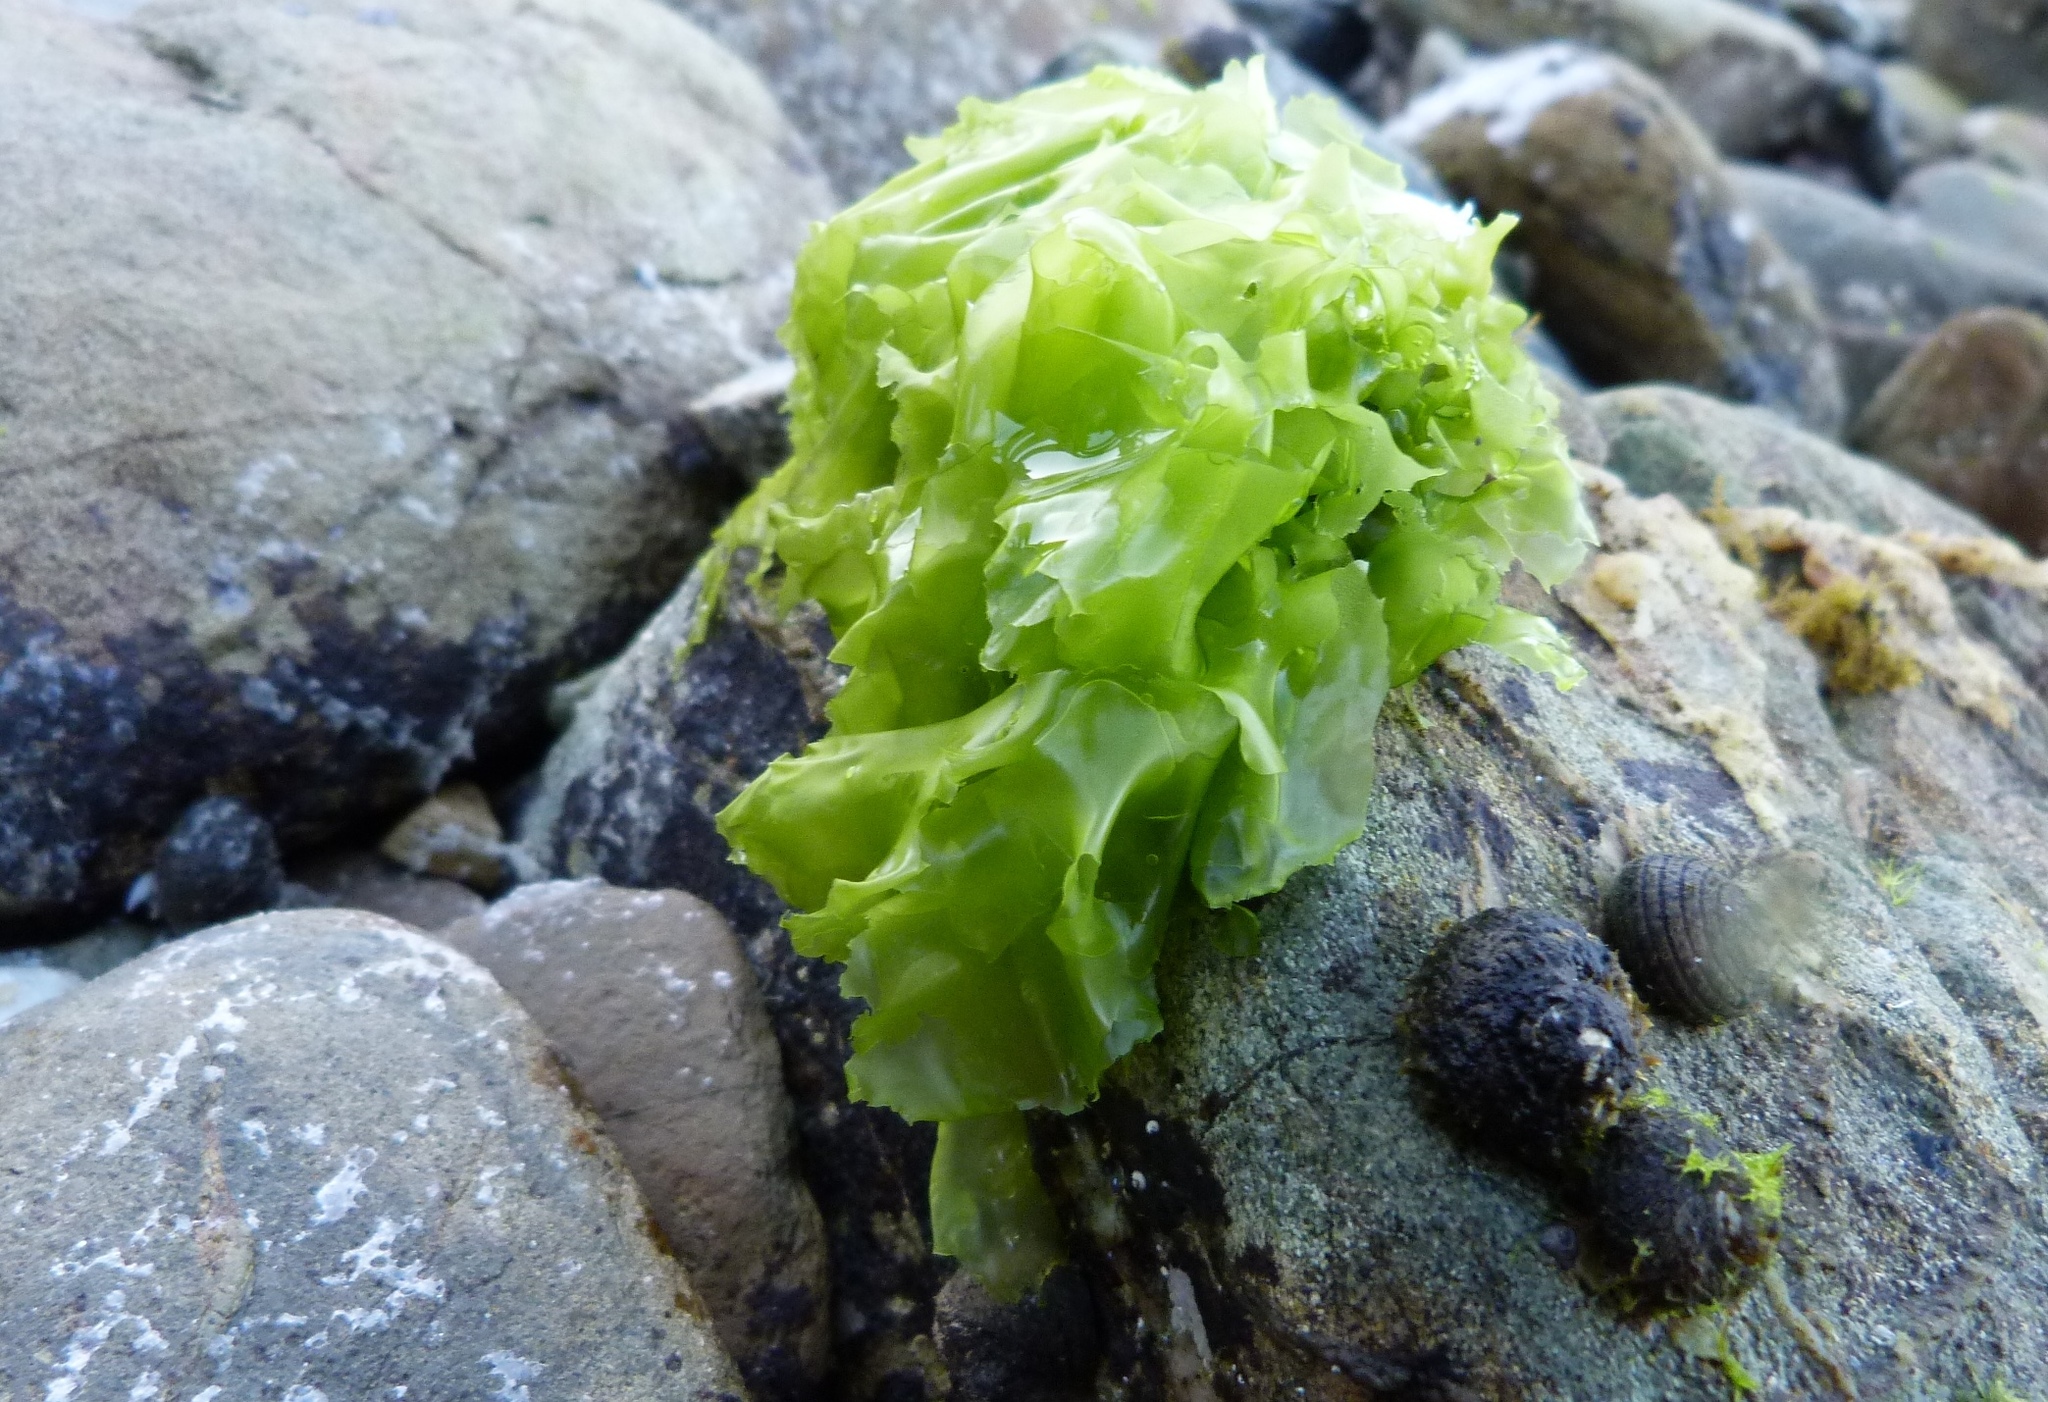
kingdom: Plantae
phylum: Chlorophyta
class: Ulvophyceae
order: Ulvales
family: Ulvaceae
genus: Ulva
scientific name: Ulva
